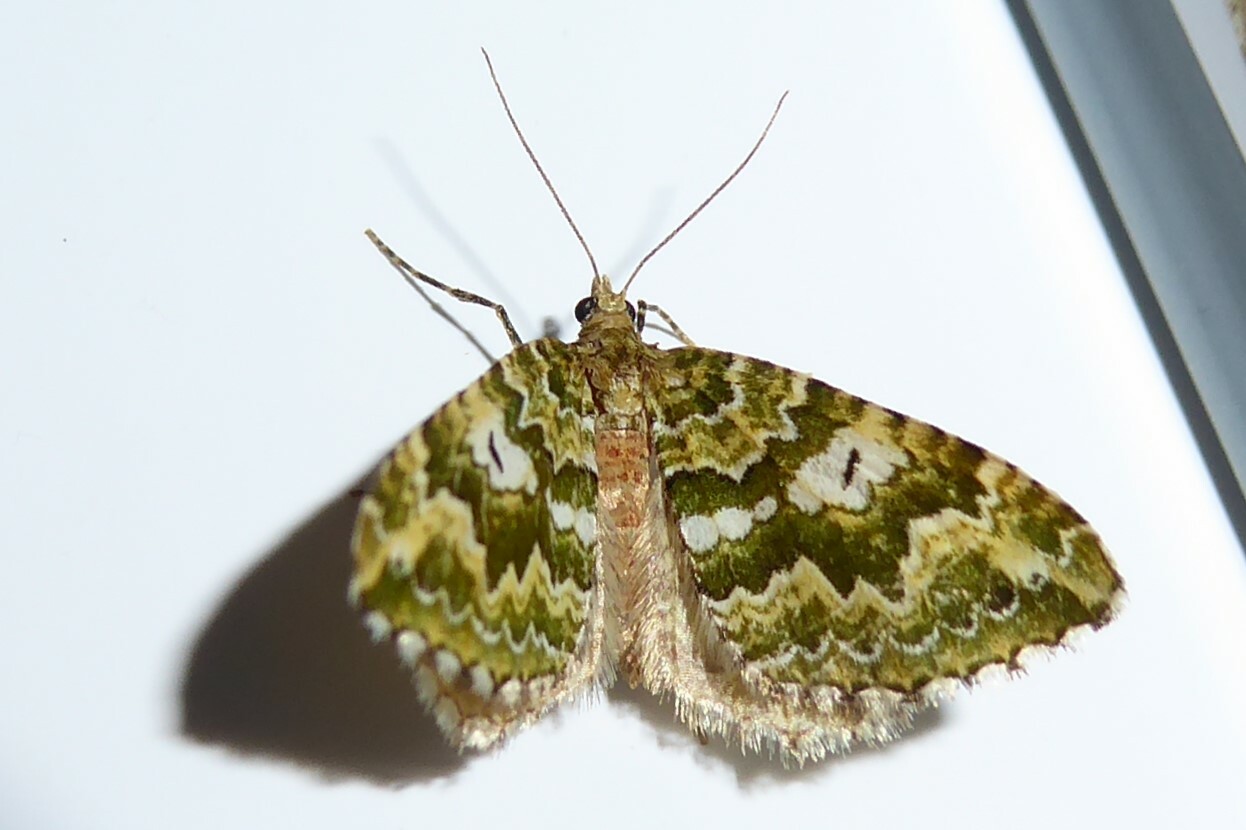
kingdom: Animalia
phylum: Arthropoda
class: Insecta
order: Lepidoptera
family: Geometridae
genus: Asaphodes
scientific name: Asaphodes beata
